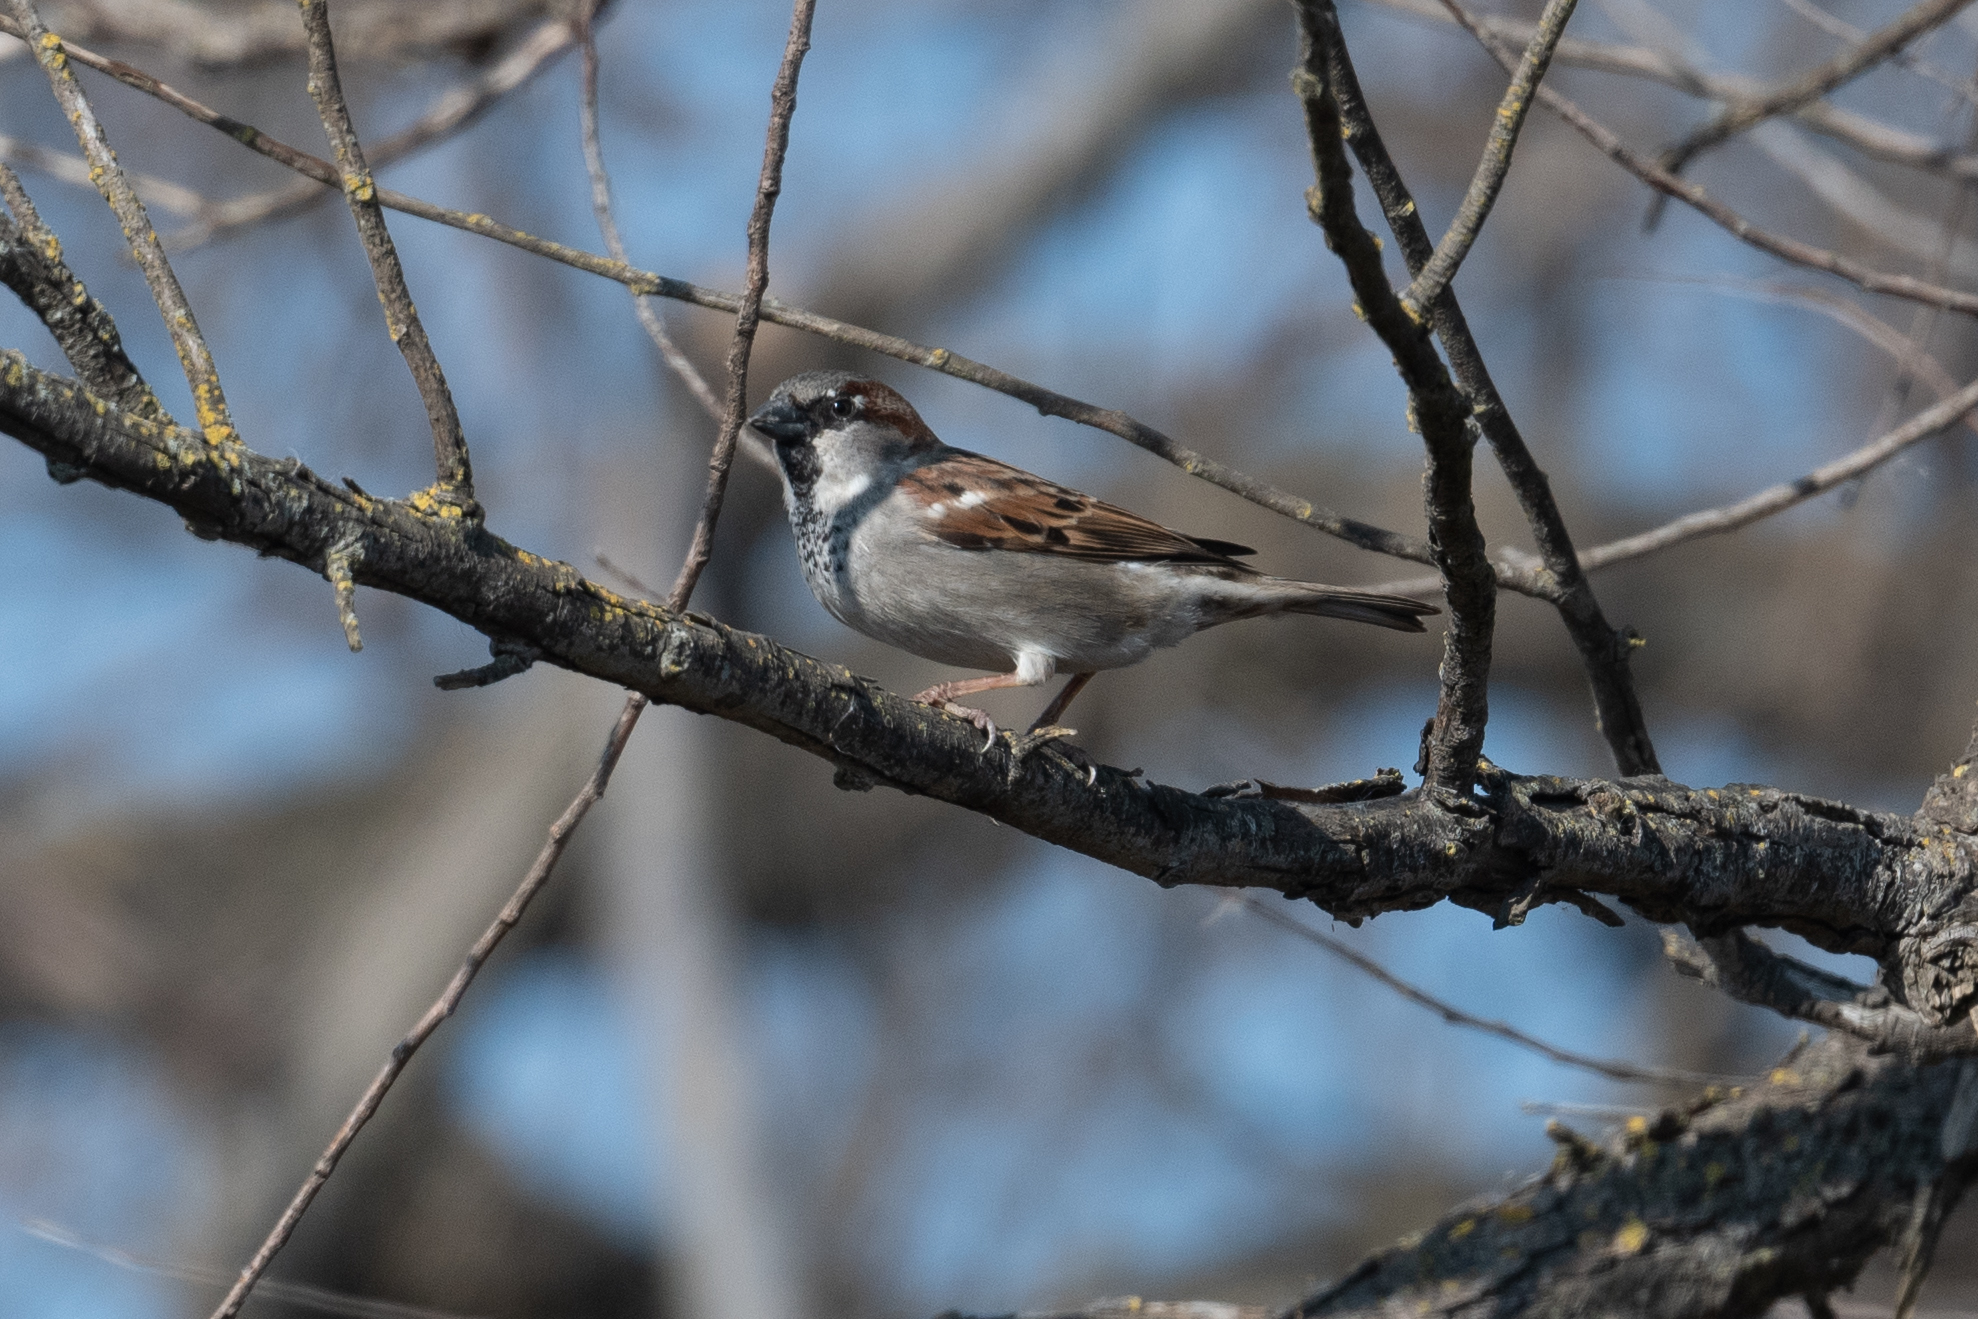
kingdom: Animalia
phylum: Chordata
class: Aves
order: Passeriformes
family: Passeridae
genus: Passer
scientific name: Passer domesticus
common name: House sparrow
